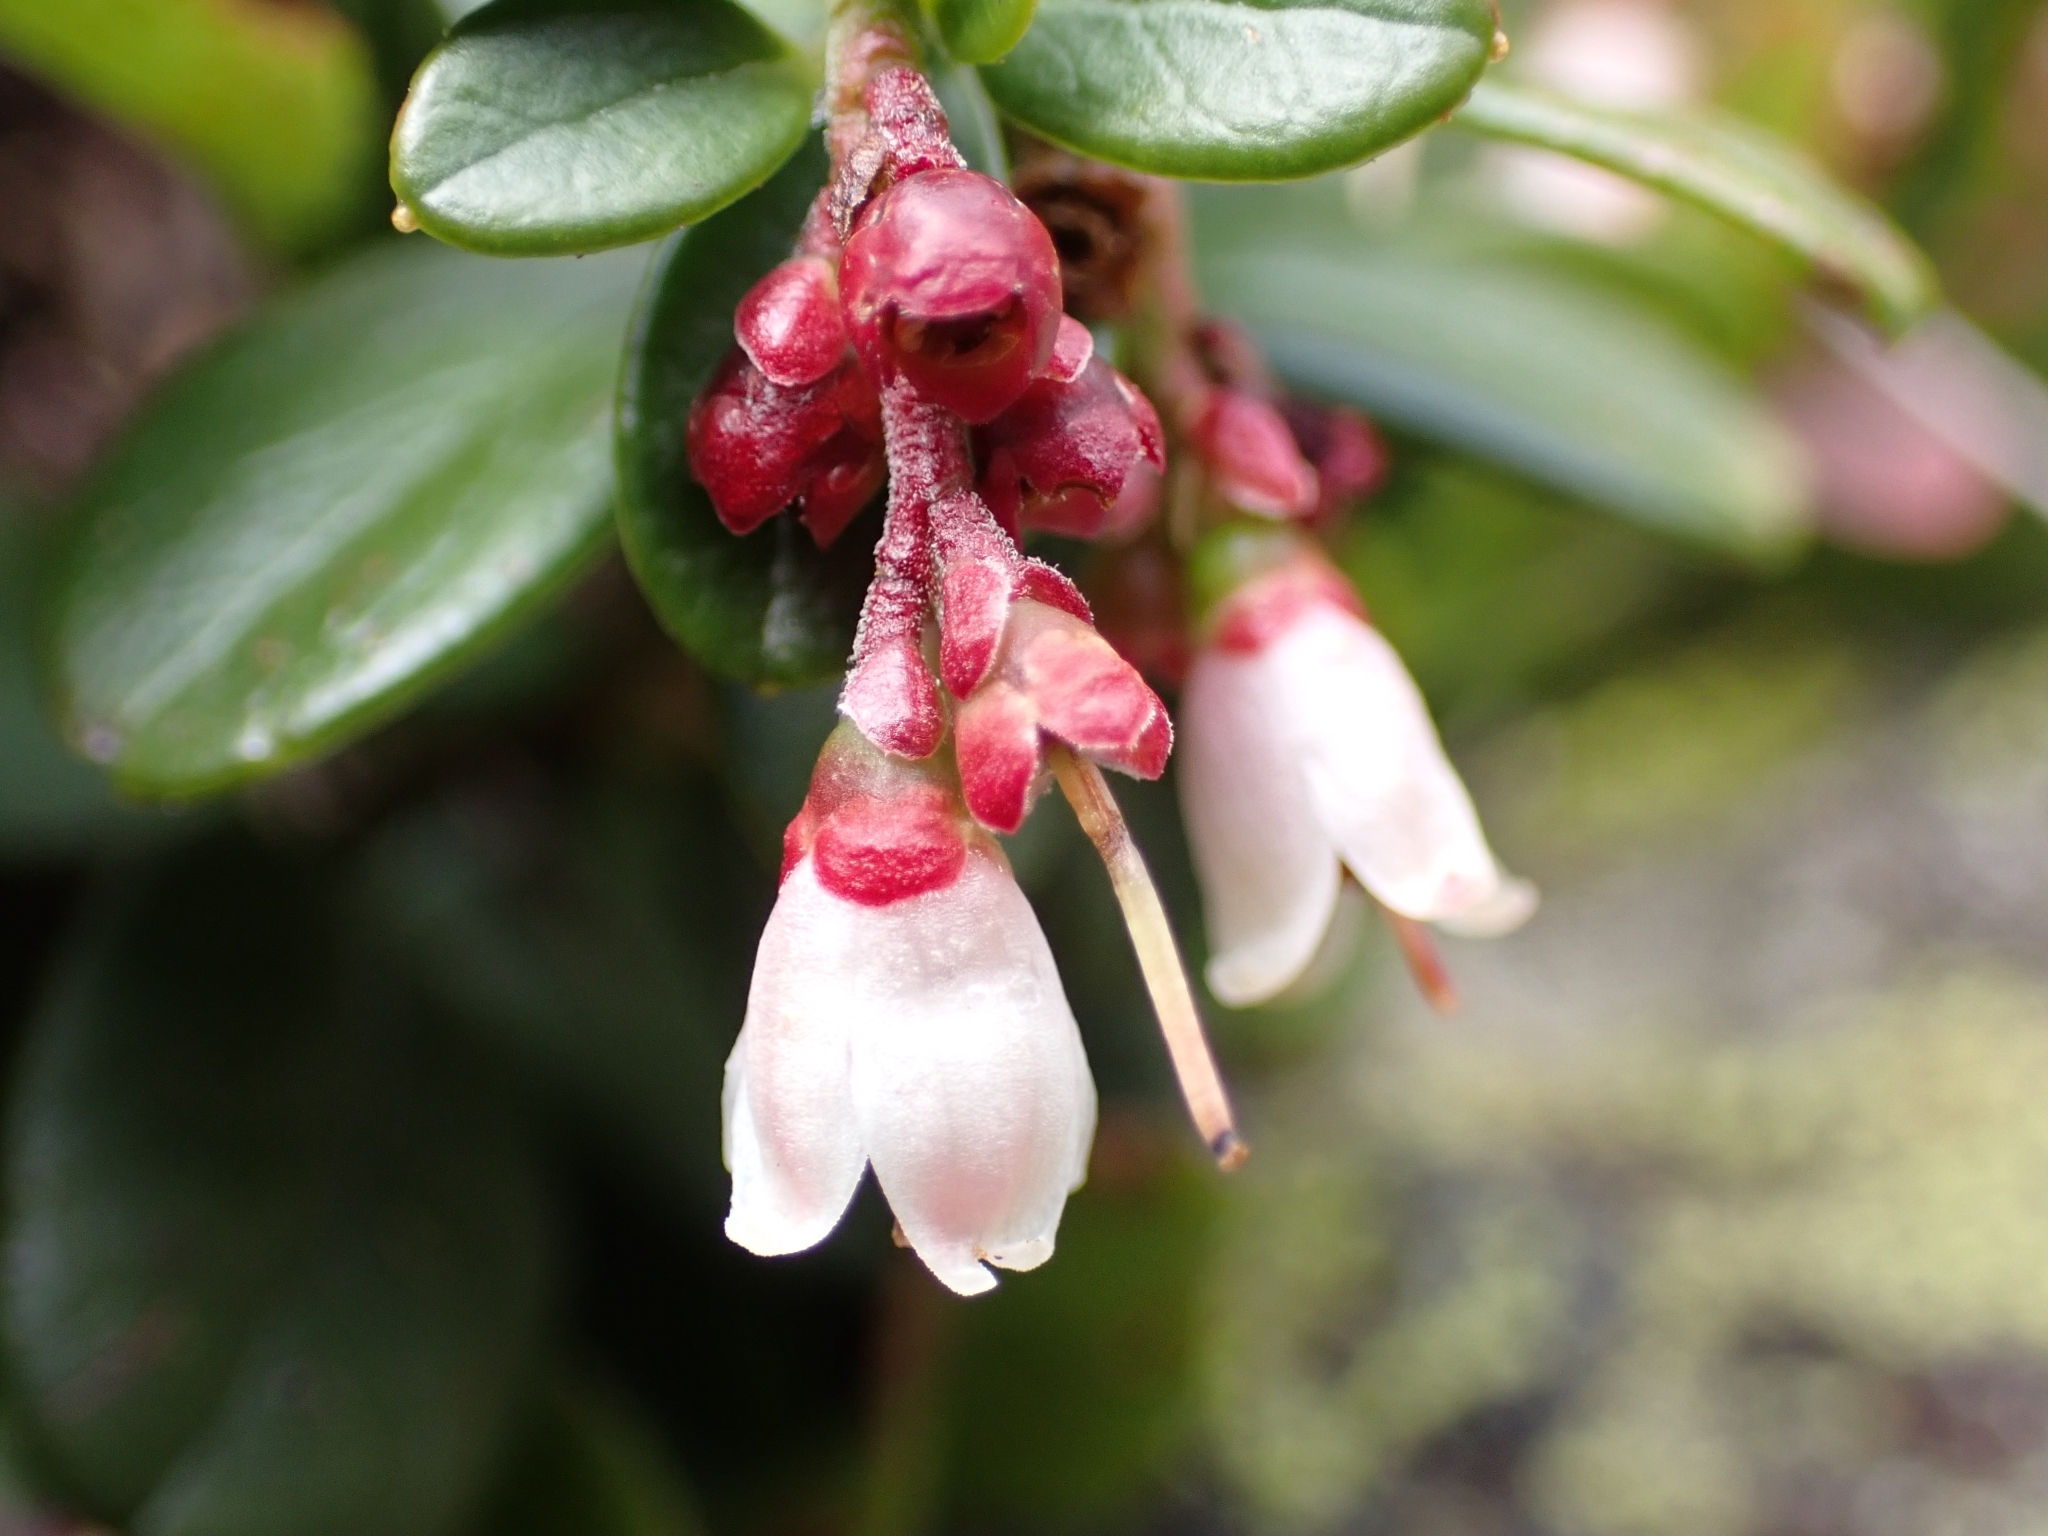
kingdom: Plantae
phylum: Tracheophyta
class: Magnoliopsida
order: Ericales
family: Ericaceae
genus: Vaccinium
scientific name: Vaccinium vitis-idaea
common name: Cowberry
